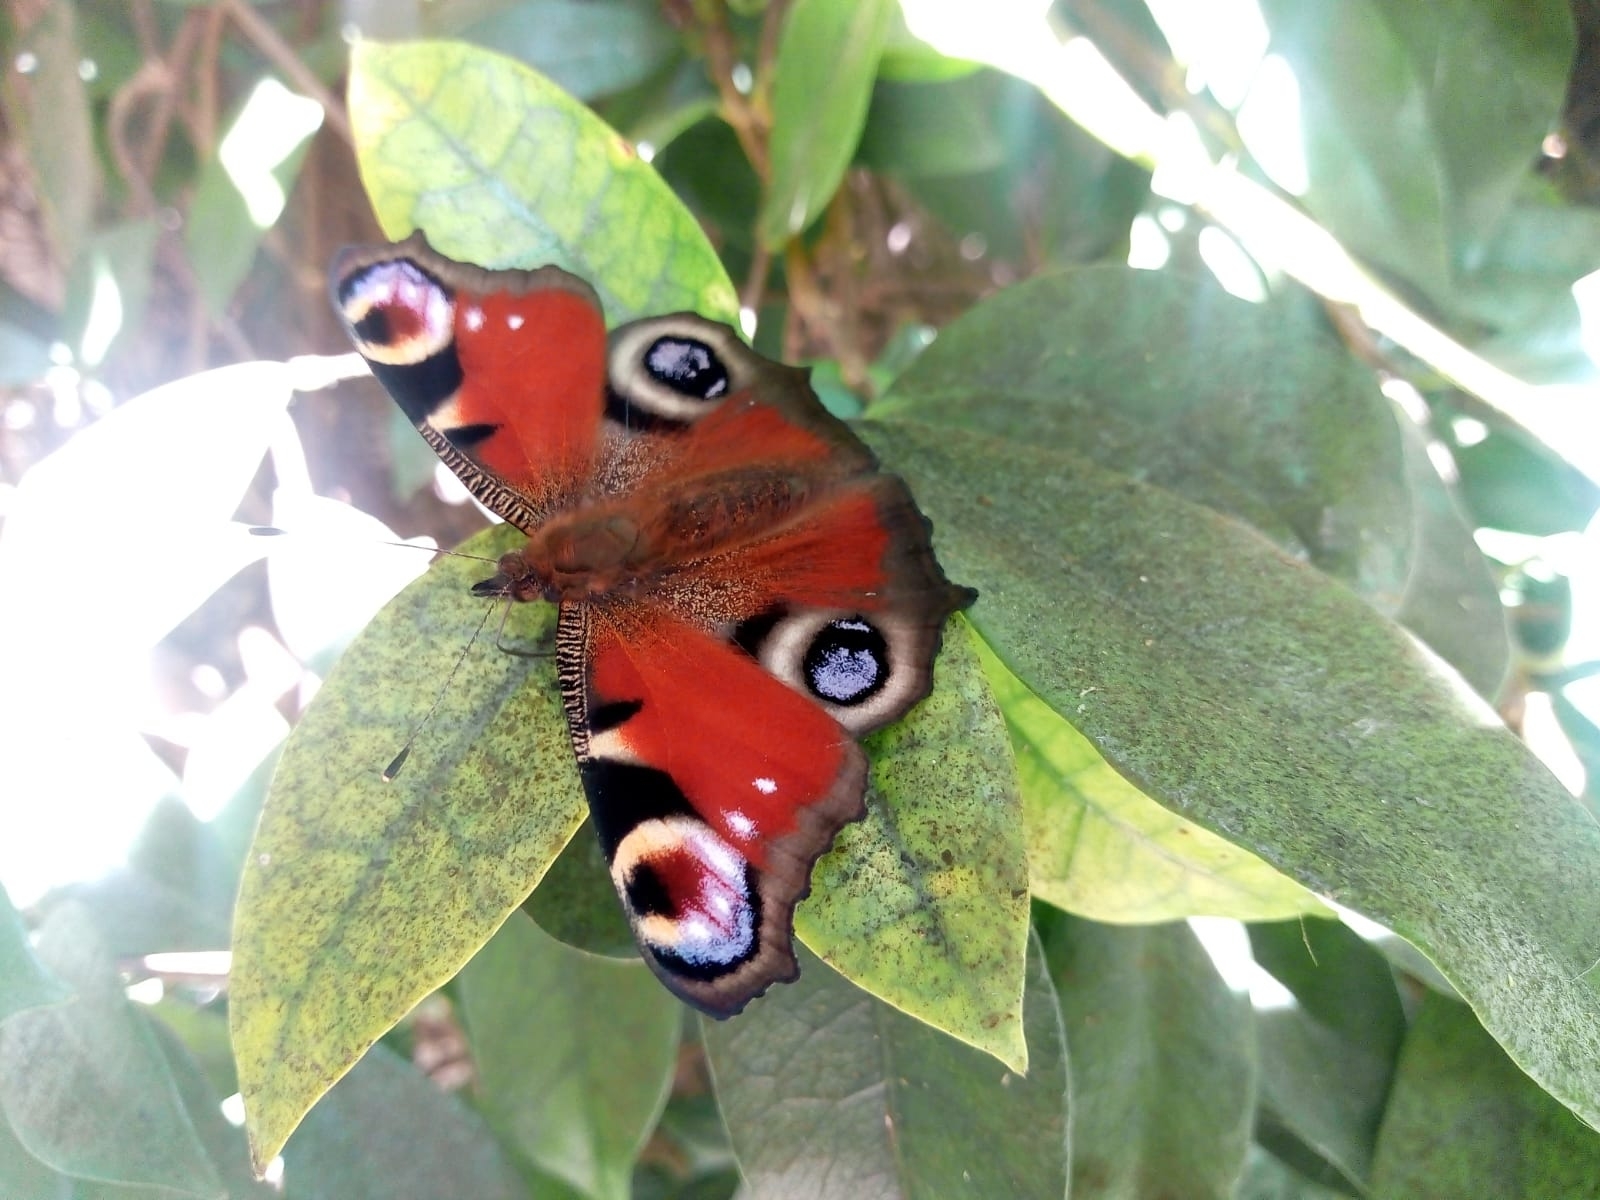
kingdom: Animalia
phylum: Arthropoda
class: Insecta
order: Lepidoptera
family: Nymphalidae
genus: Aglais
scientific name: Aglais io
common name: Peacock
